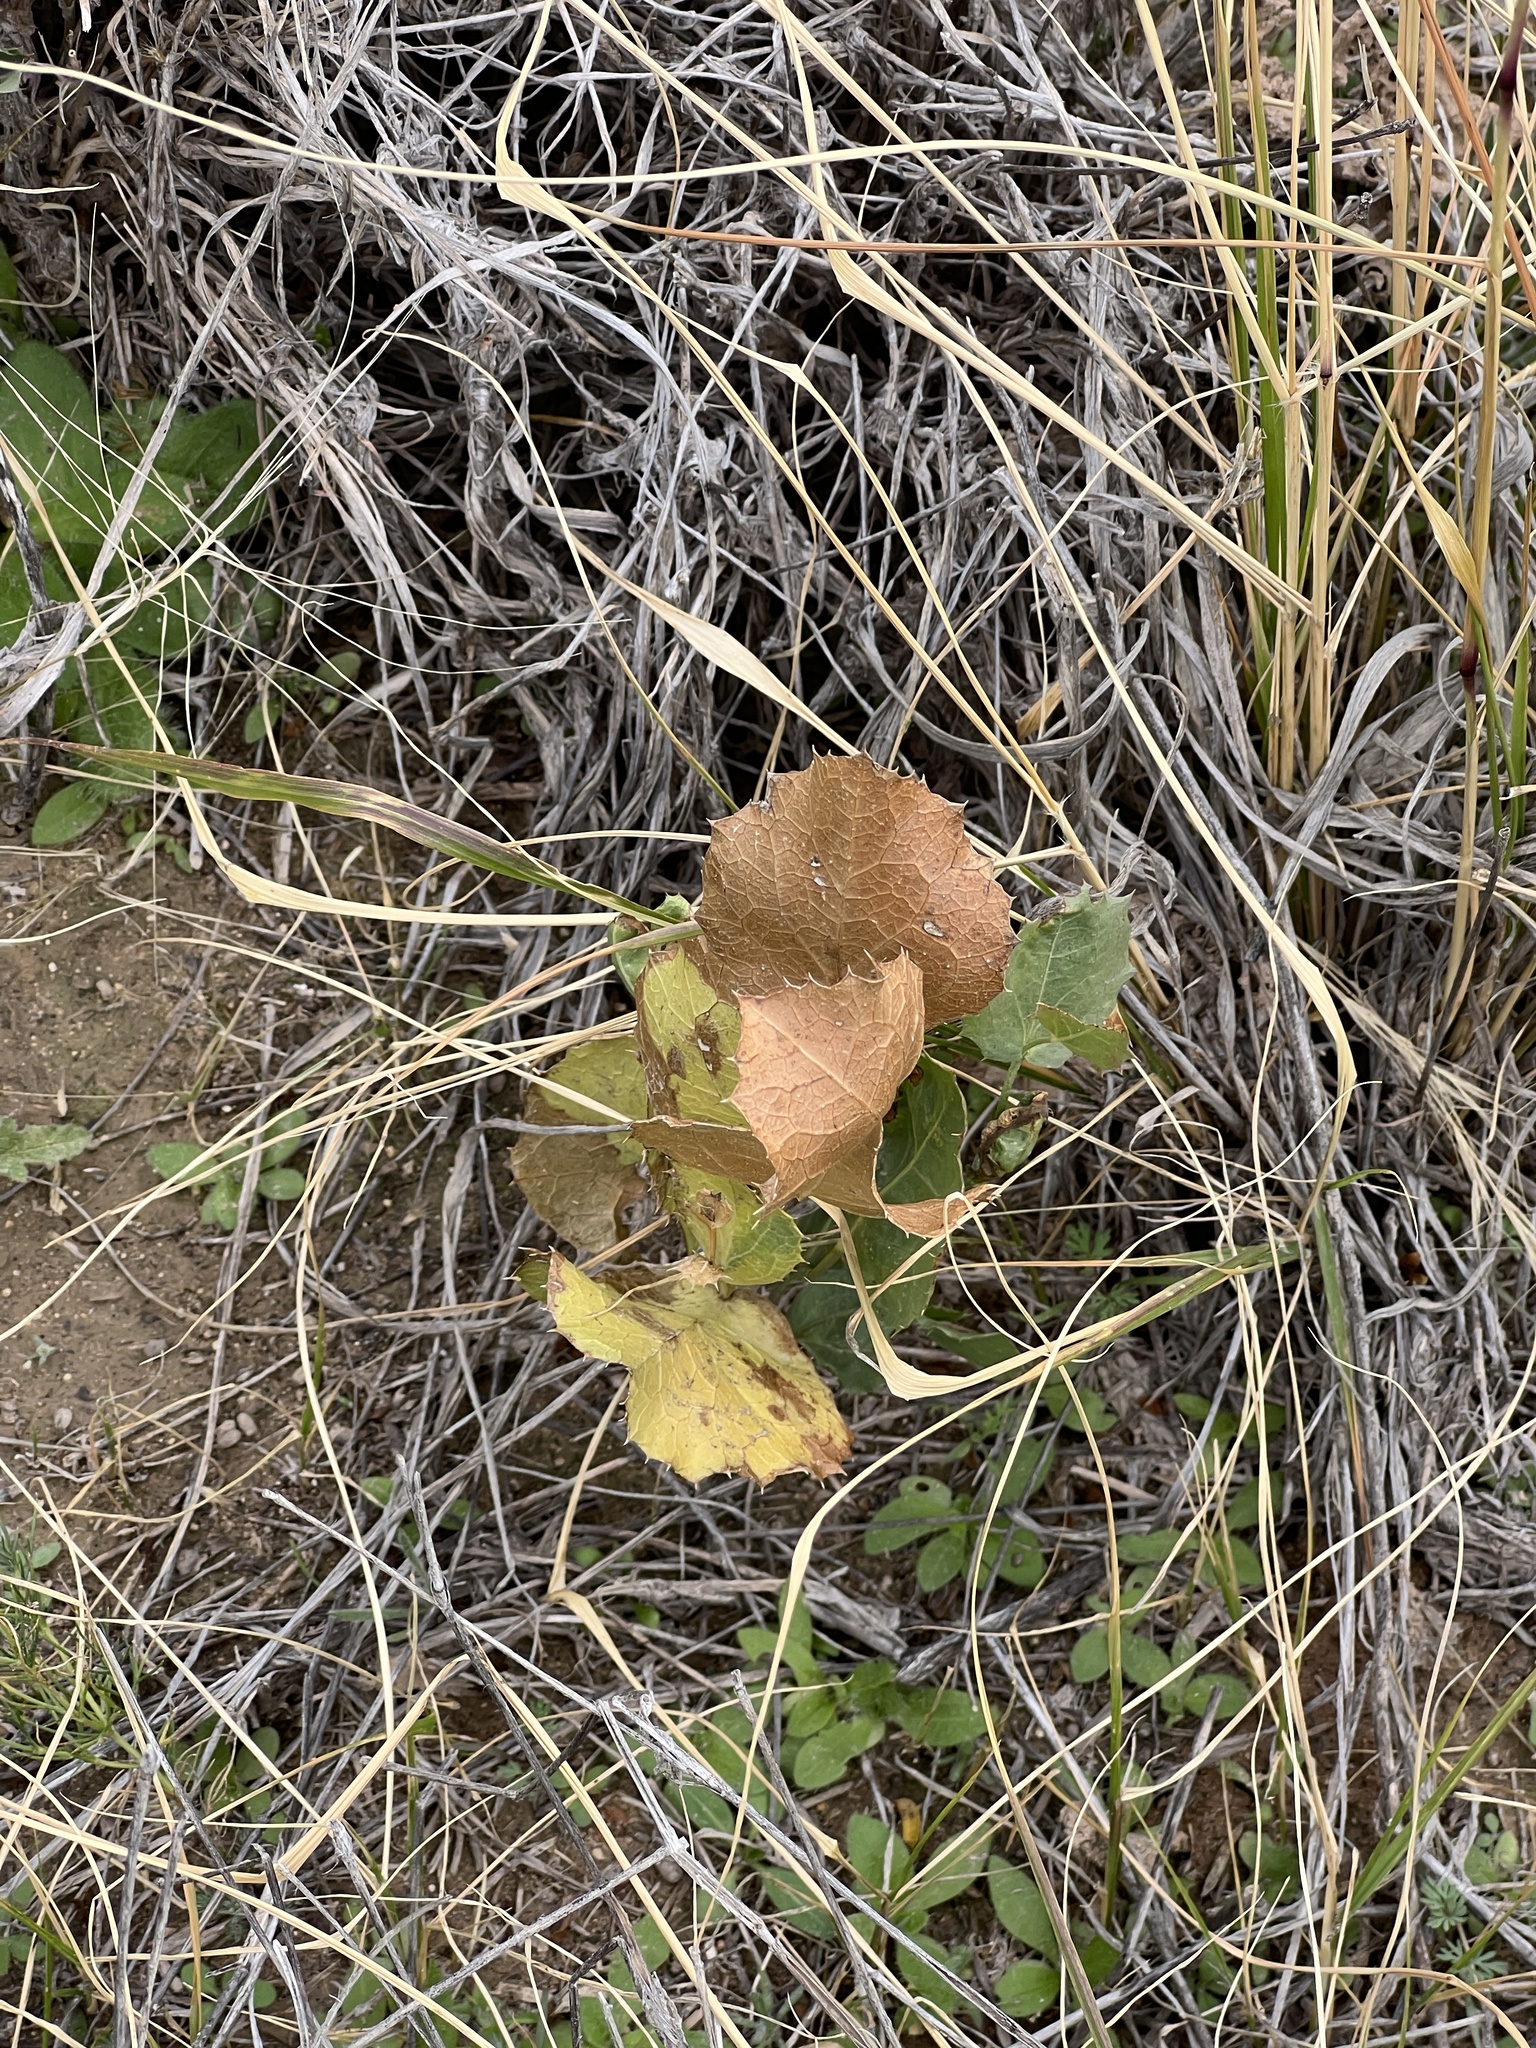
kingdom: Plantae
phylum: Tracheophyta
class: Magnoliopsida
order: Asterales
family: Asteraceae
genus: Acourtia
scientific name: Acourtia nana
